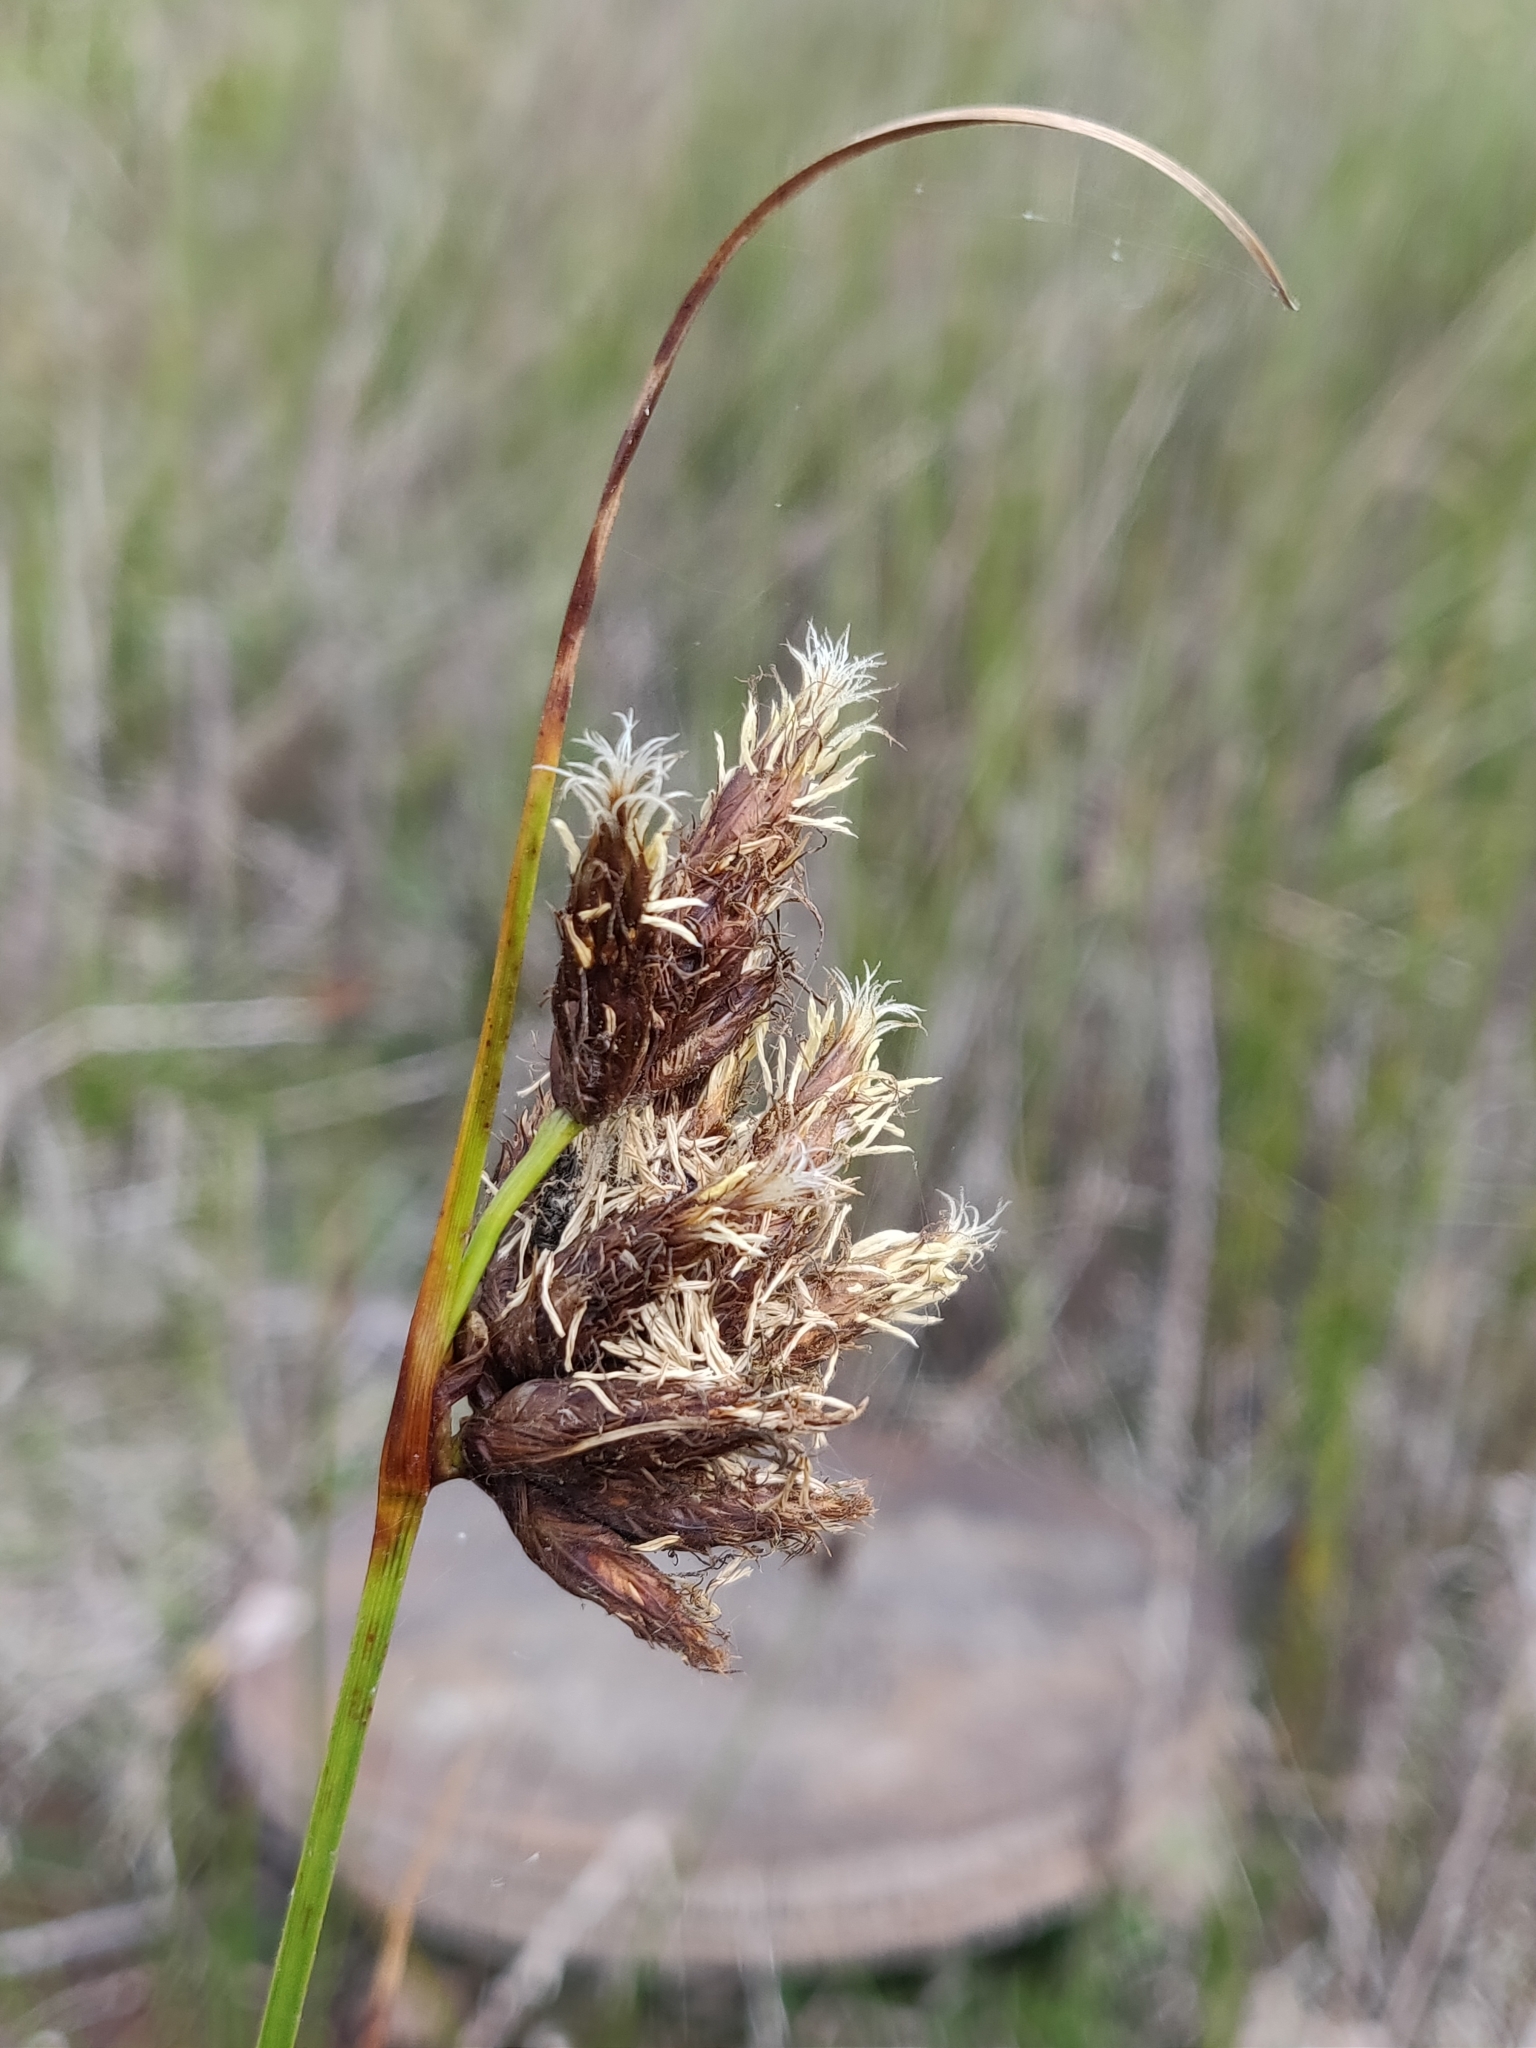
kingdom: Plantae
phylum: Tracheophyta
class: Liliopsida
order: Poales
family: Cyperaceae
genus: Bolboschoenus
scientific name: Bolboschoenus maritimus
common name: Sea club-rush
